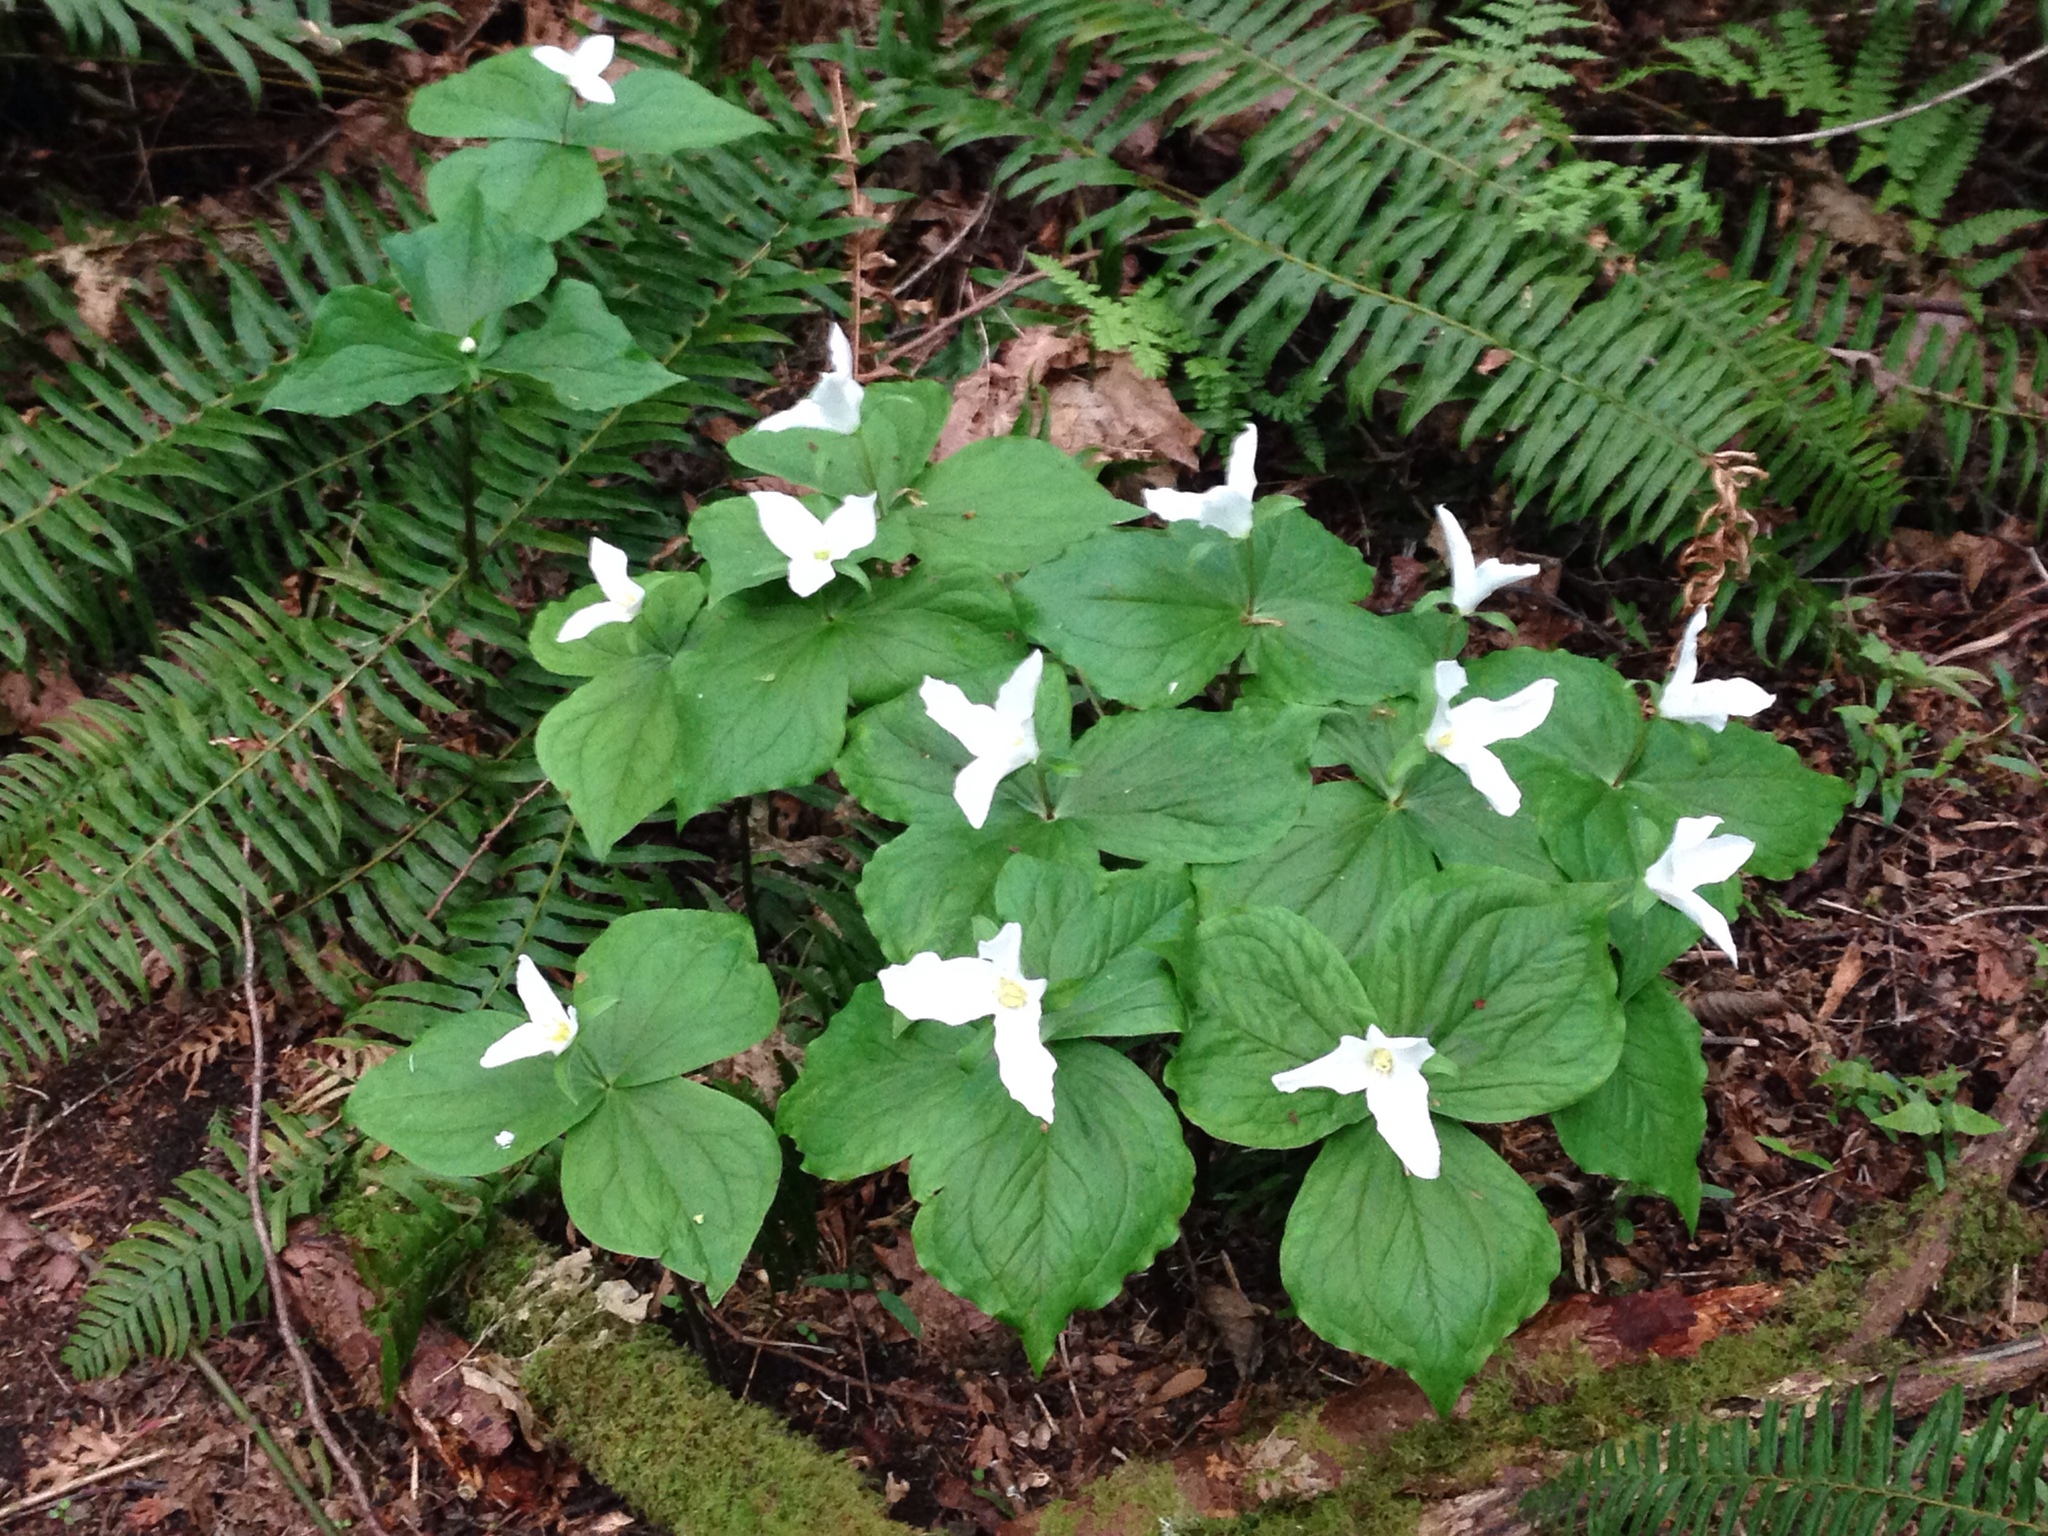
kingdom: Plantae
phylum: Tracheophyta
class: Liliopsida
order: Liliales
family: Melanthiaceae
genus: Trillium
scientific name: Trillium ovatum
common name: Pacific trillium
